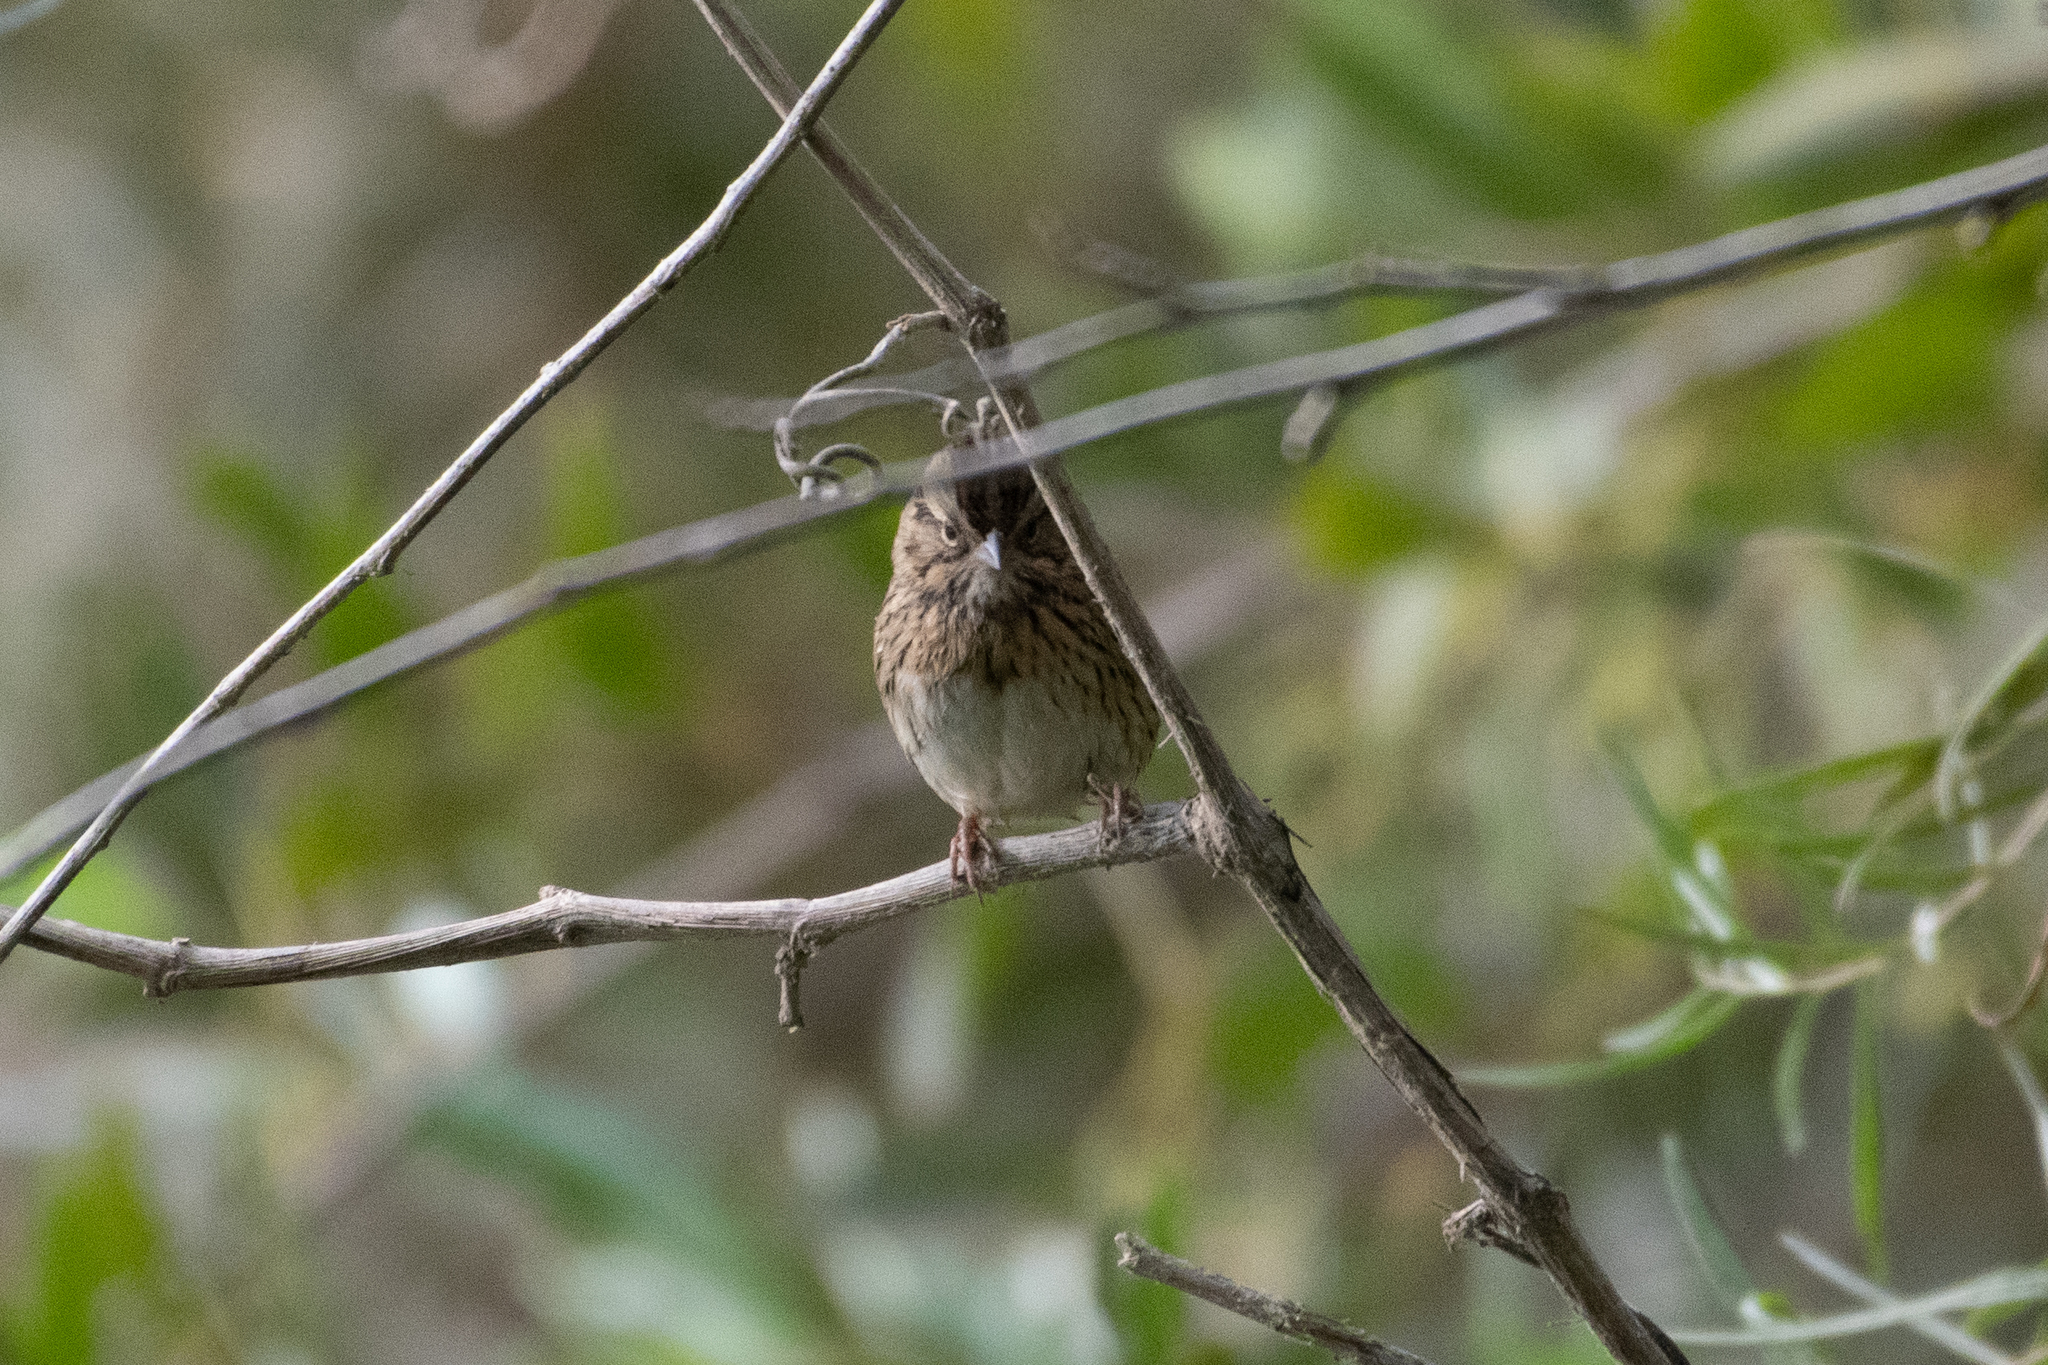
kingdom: Animalia
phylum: Chordata
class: Aves
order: Passeriformes
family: Passerellidae
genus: Melospiza
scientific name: Melospiza lincolnii
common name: Lincoln's sparrow
